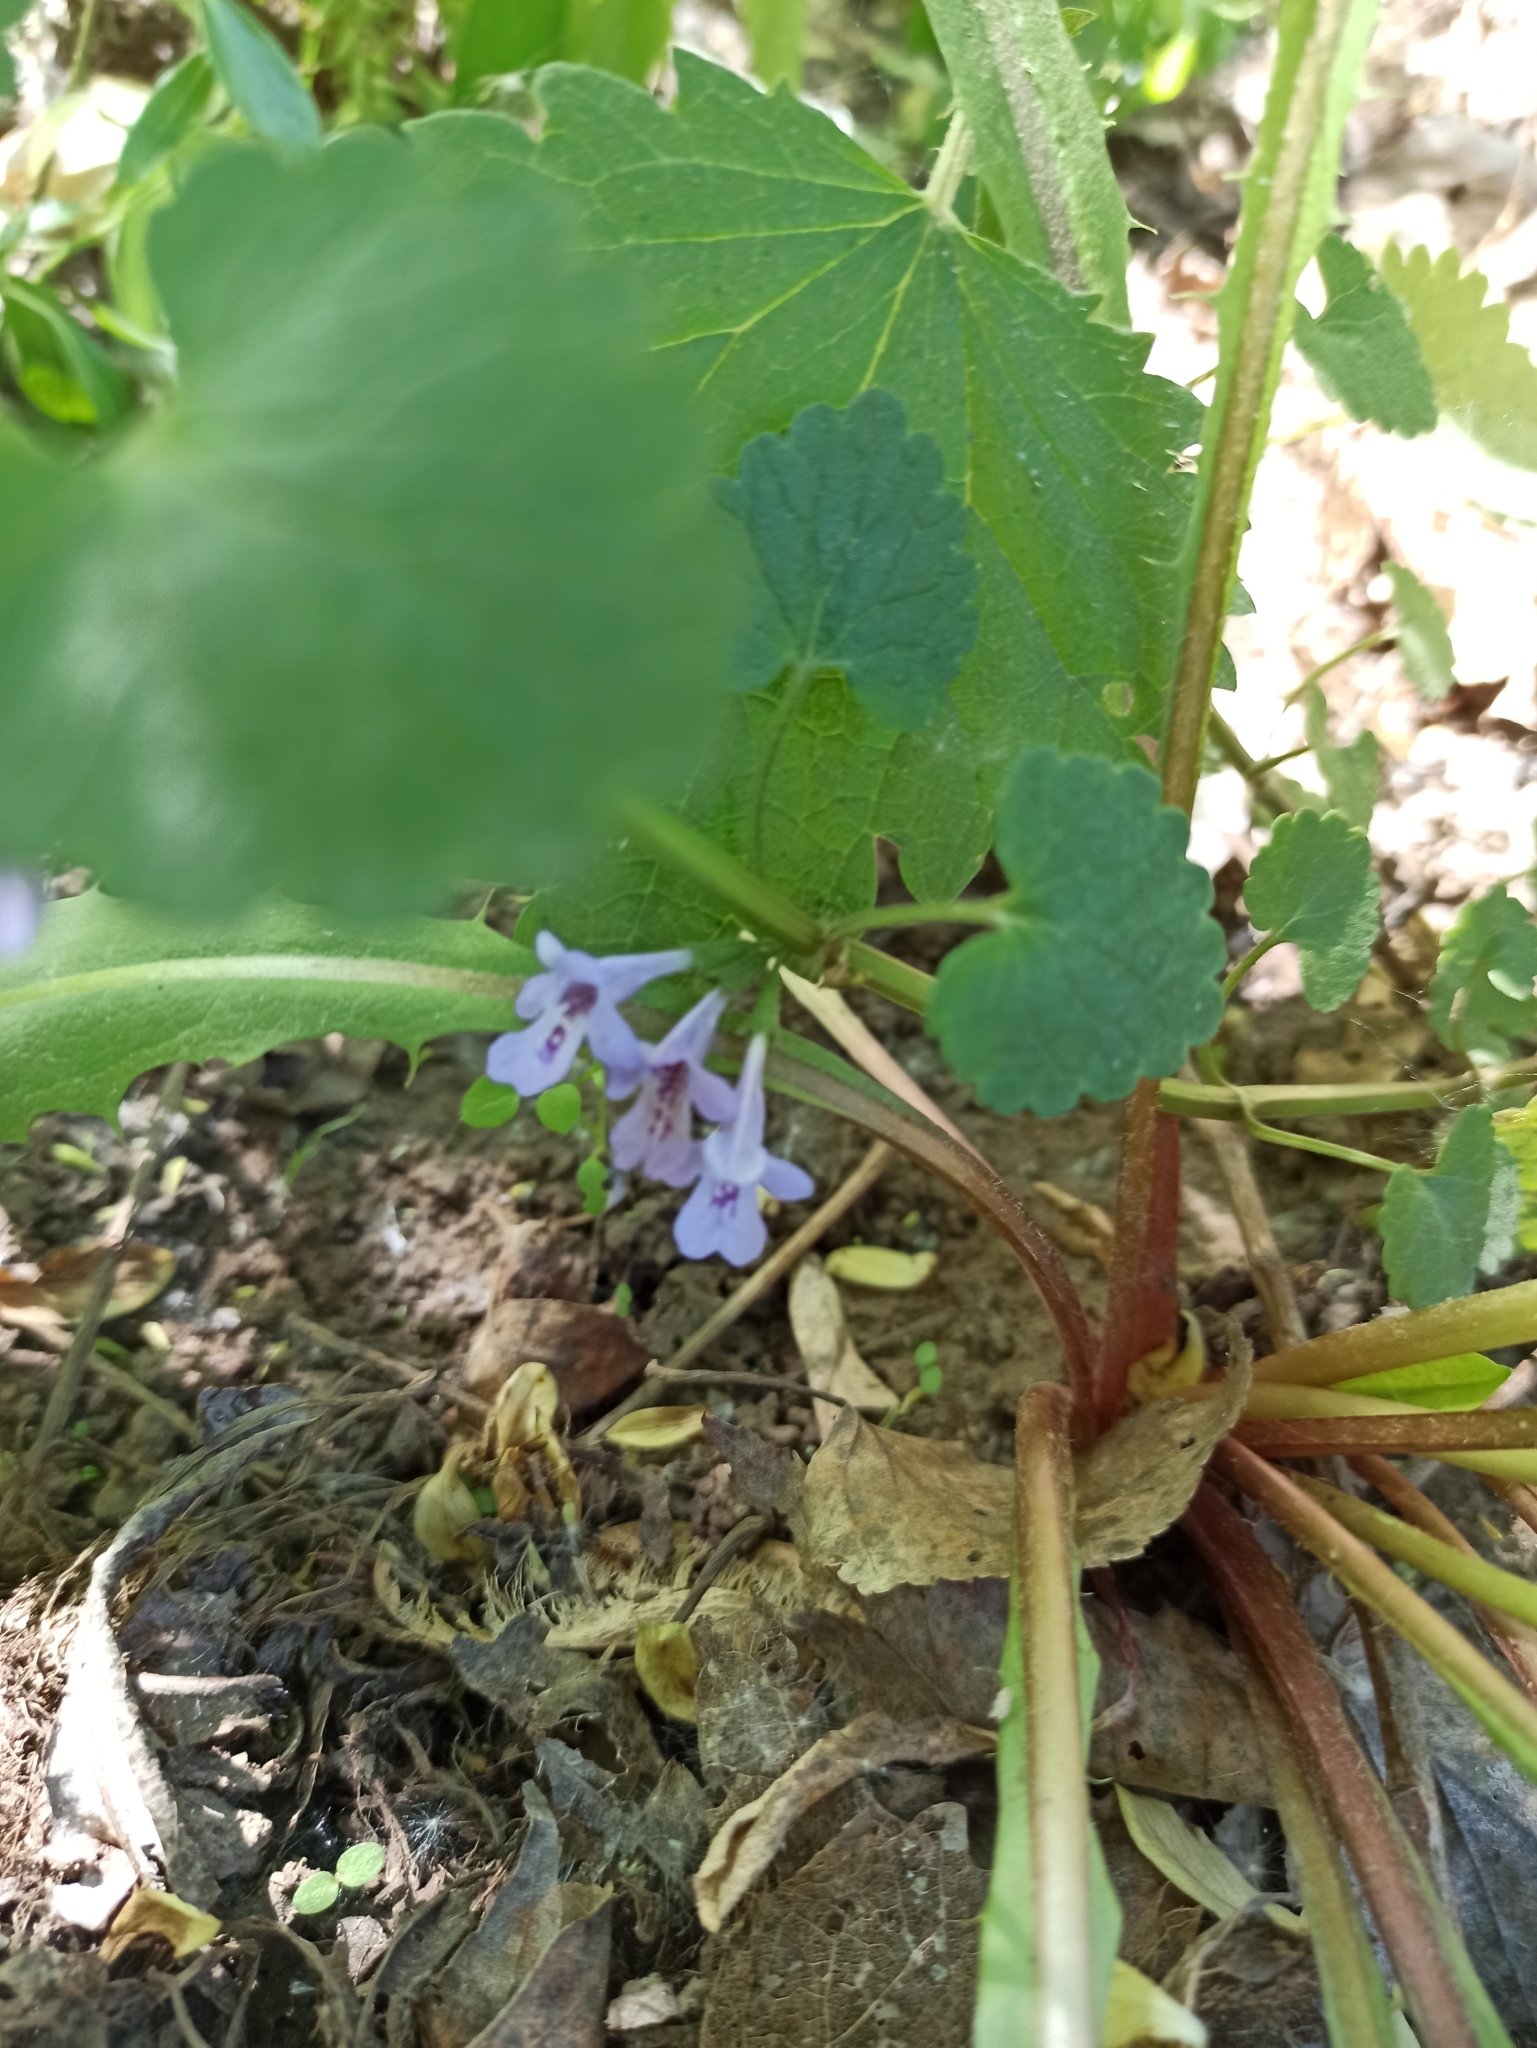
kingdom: Plantae
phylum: Tracheophyta
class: Magnoliopsida
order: Lamiales
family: Lamiaceae
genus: Glechoma
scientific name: Glechoma hederacea
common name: Ground ivy
